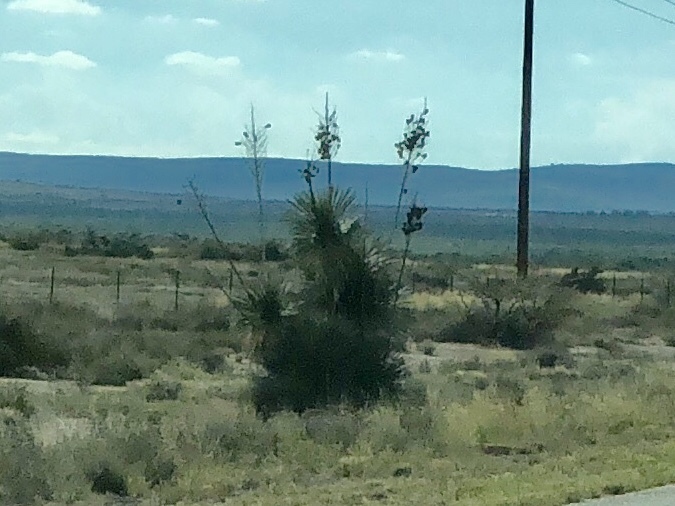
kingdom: Plantae
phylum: Tracheophyta
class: Liliopsida
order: Asparagales
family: Asparagaceae
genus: Yucca
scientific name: Yucca elata
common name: Palmella
